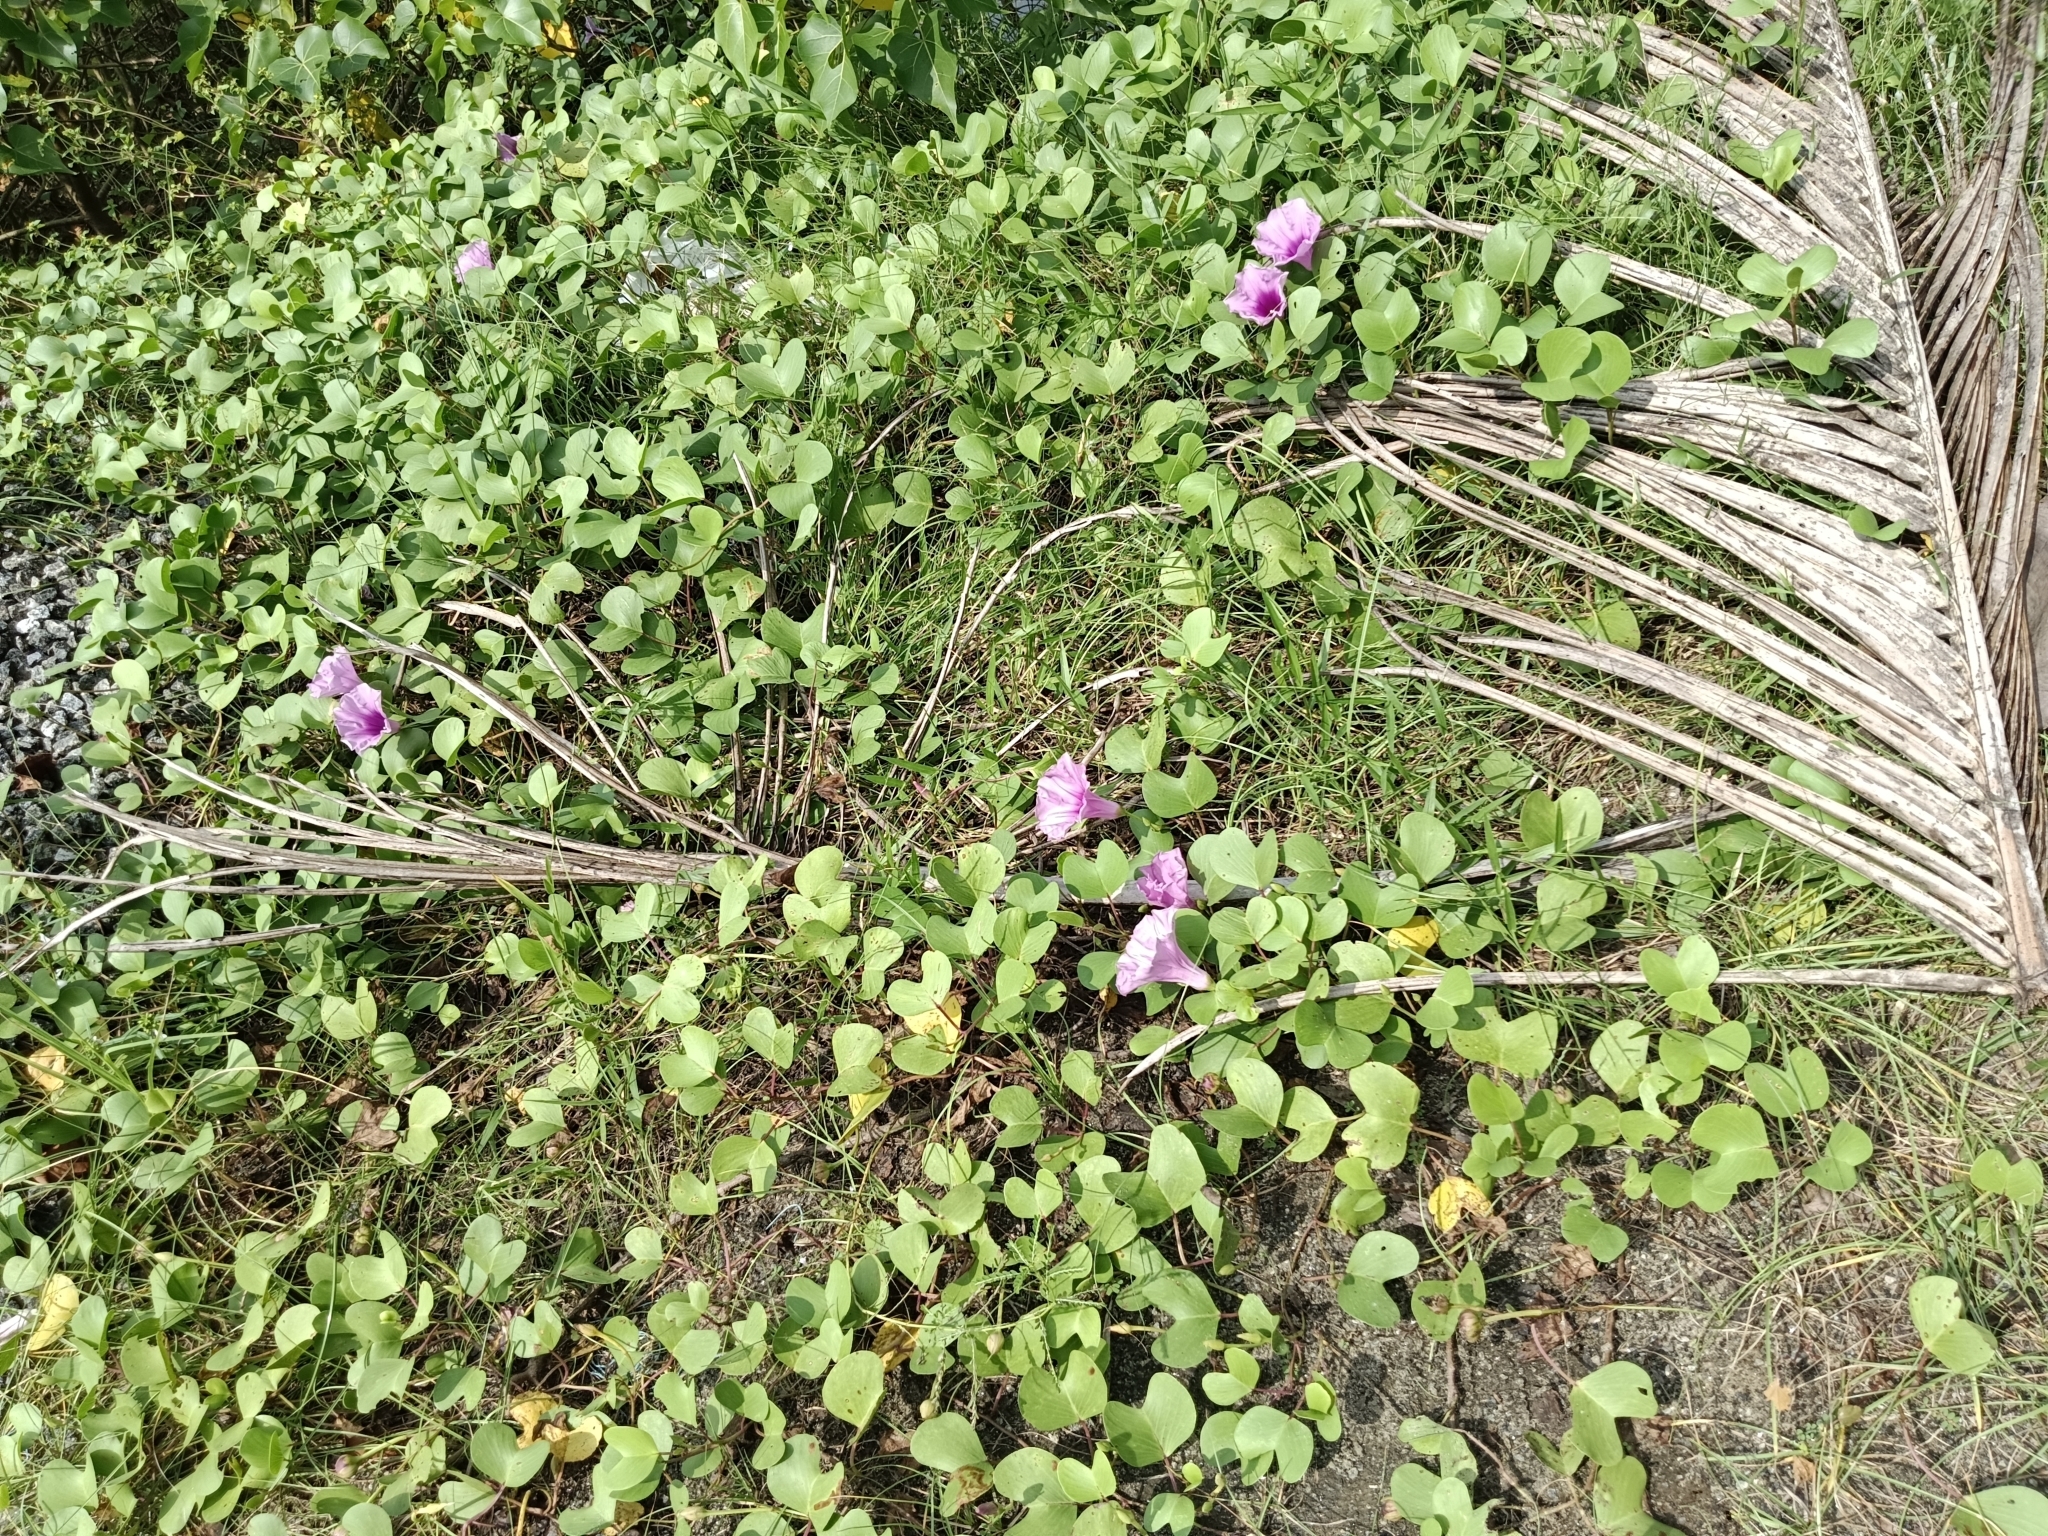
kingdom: Plantae
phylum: Tracheophyta
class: Magnoliopsida
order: Solanales
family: Convolvulaceae
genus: Ipomoea
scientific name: Ipomoea pes-caprae
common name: Beach morning glory
